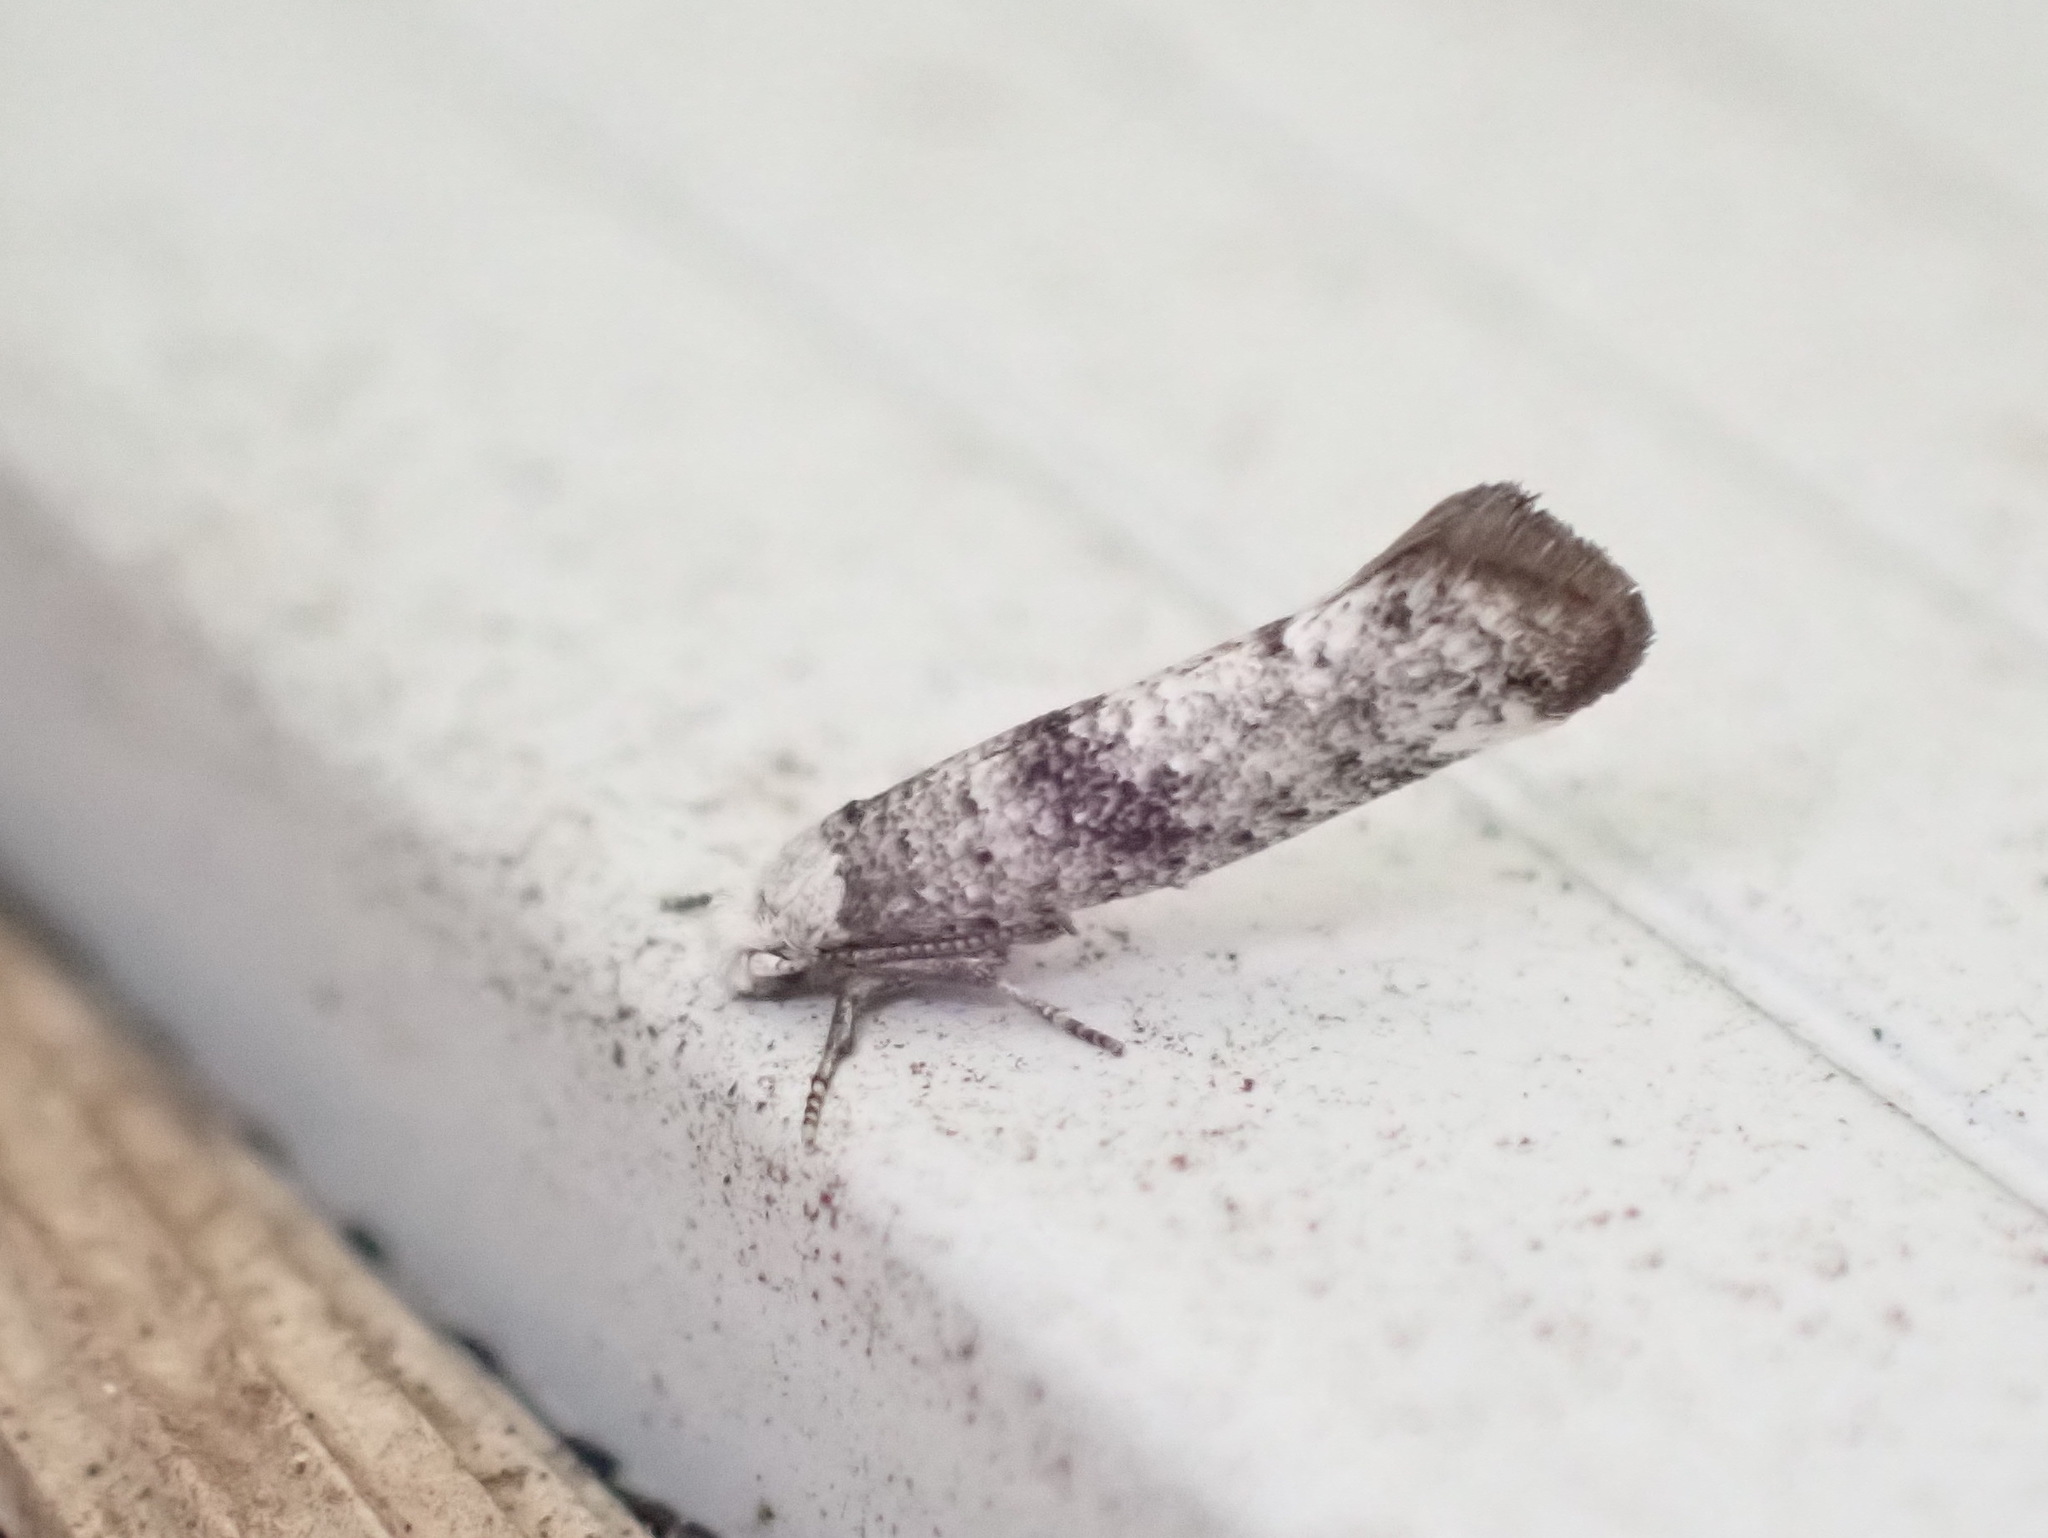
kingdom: Animalia
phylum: Arthropoda
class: Insecta
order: Lepidoptera
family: Yponomeutidae
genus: Swammerdamia
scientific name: Swammerdamia
